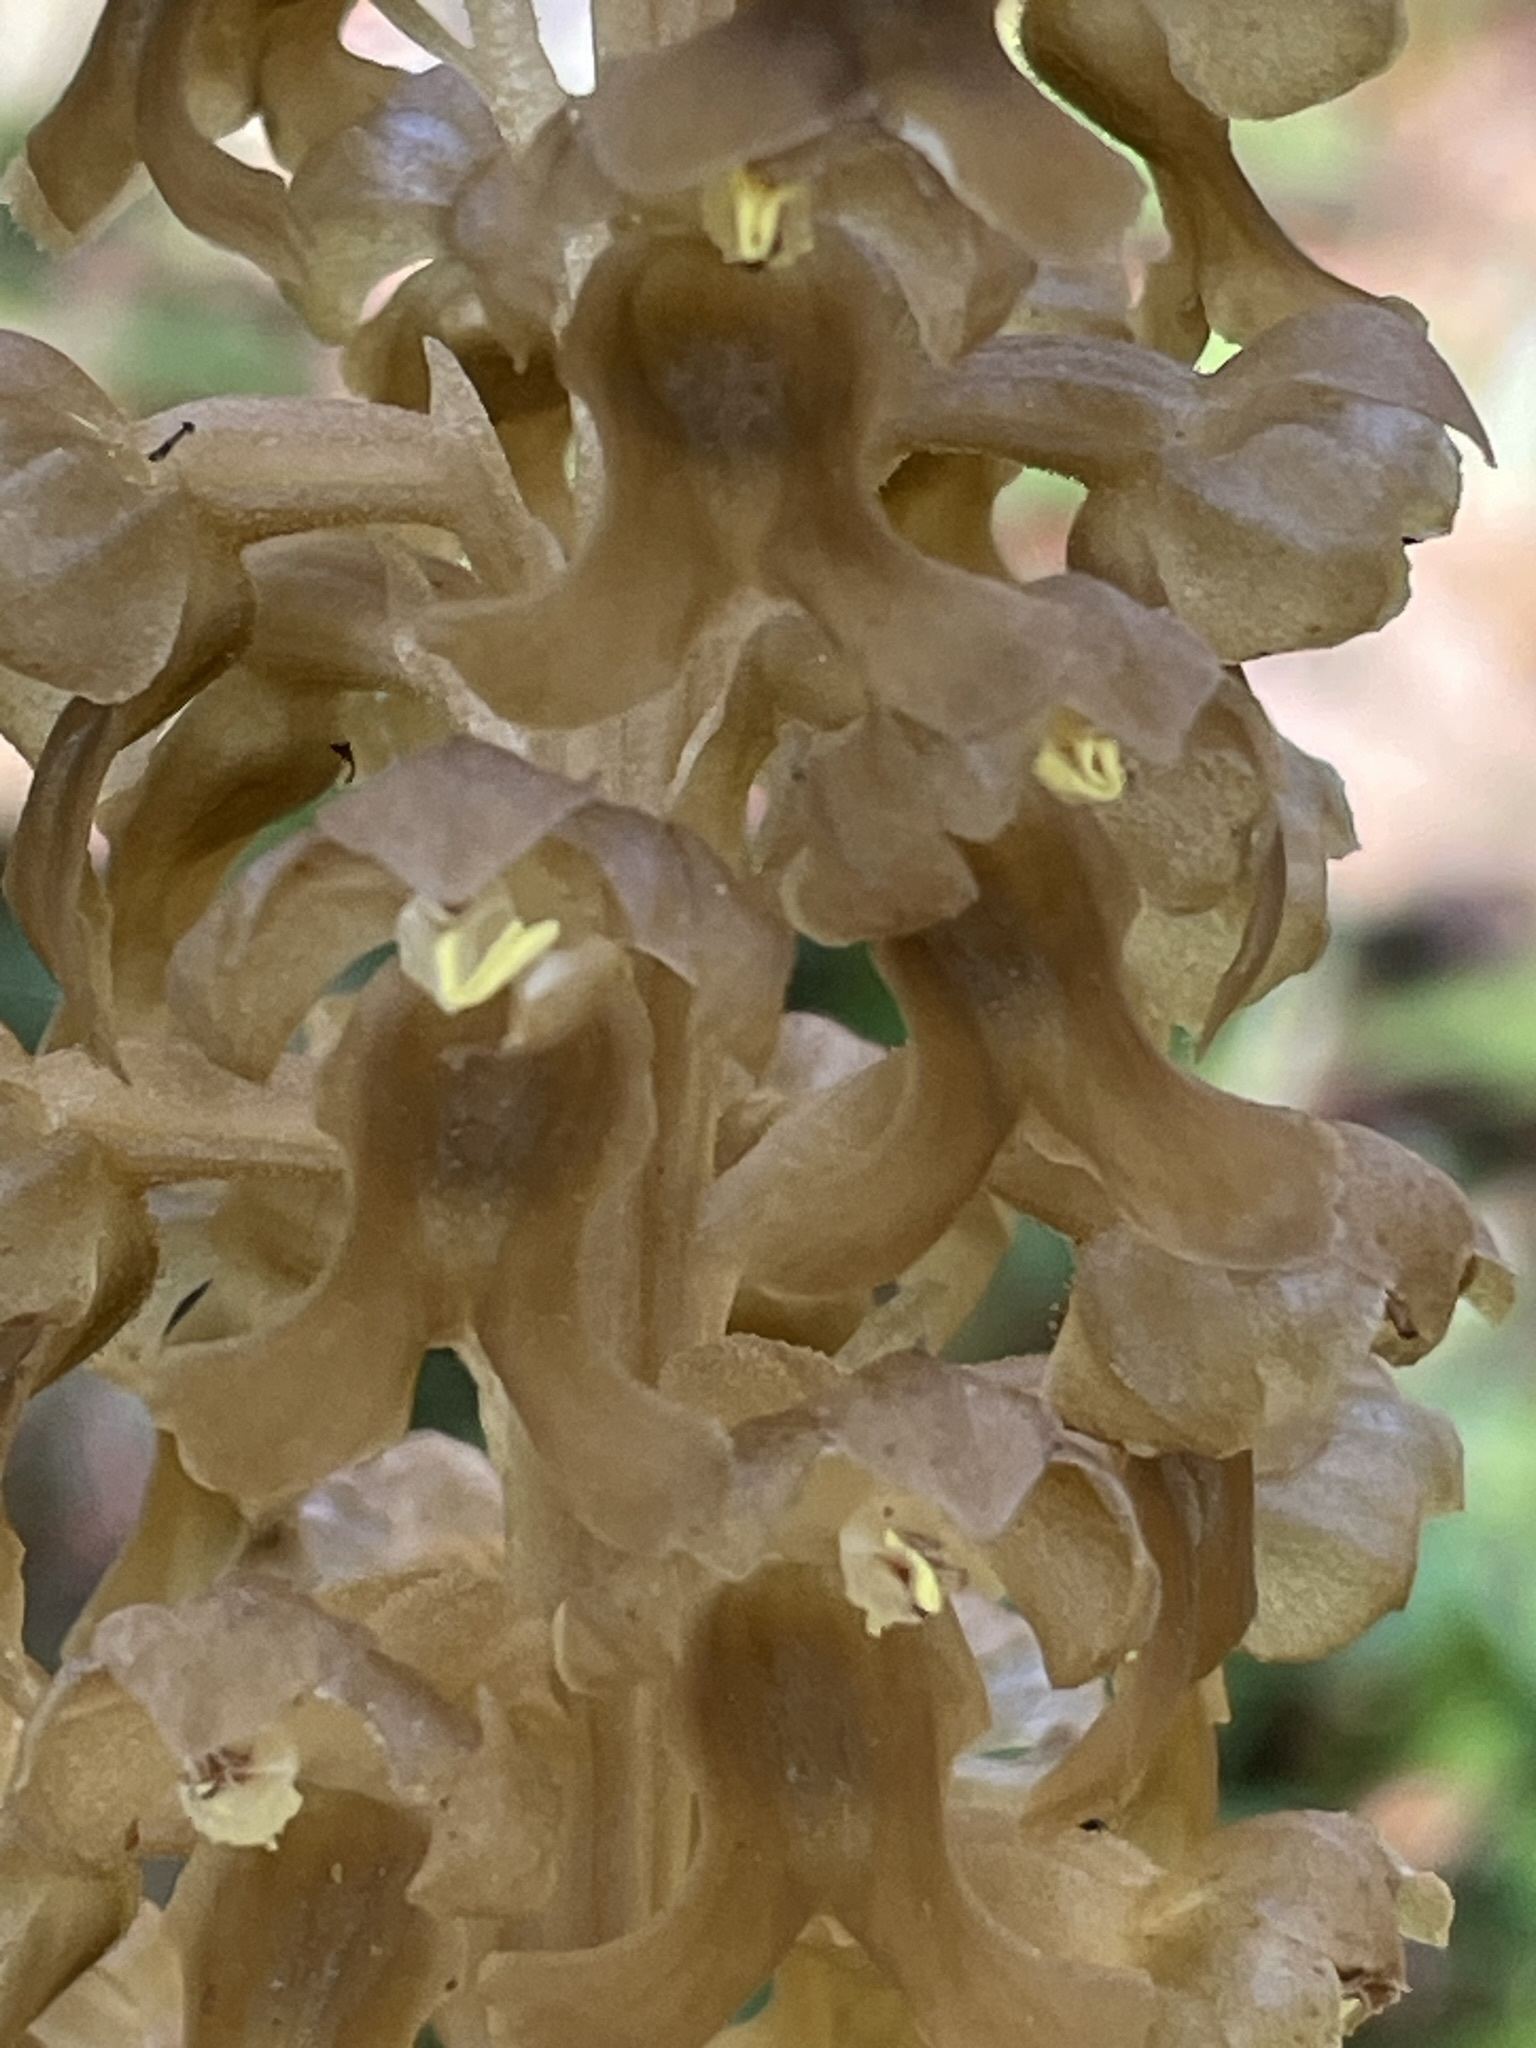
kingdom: Plantae
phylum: Tracheophyta
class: Liliopsida
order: Asparagales
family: Orchidaceae
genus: Neottia
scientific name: Neottia nidus-avis
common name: Bird's-nest orchid
